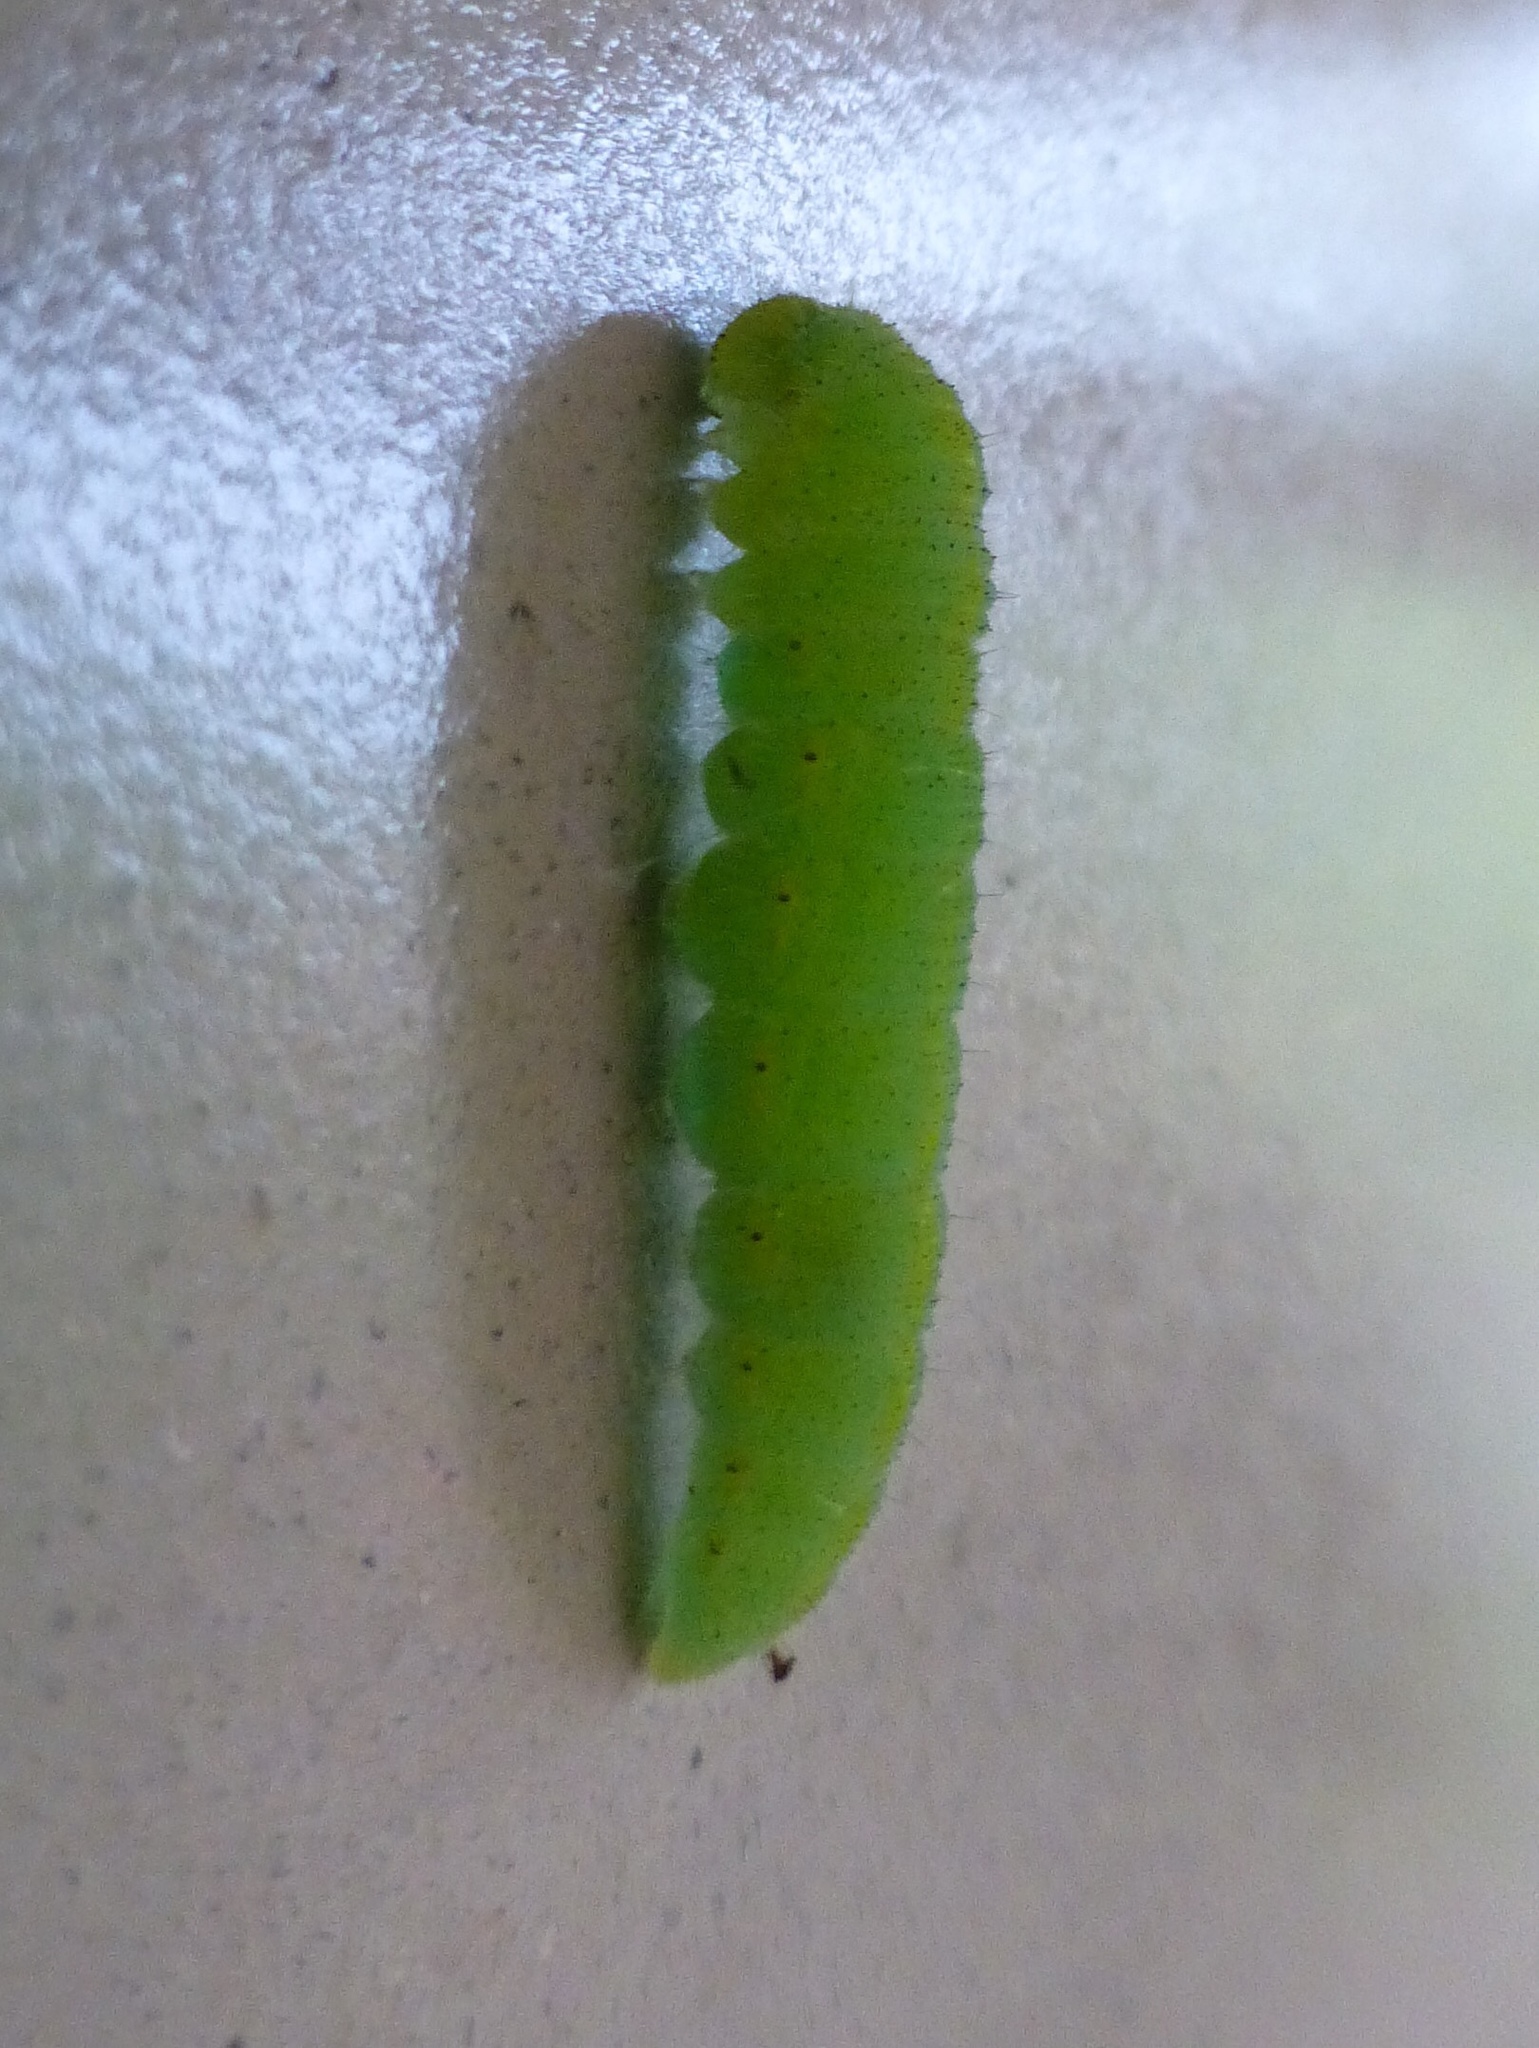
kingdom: Animalia
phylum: Arthropoda
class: Insecta
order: Lepidoptera
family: Pieridae
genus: Pieris
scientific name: Pieris rapae
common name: Small white
